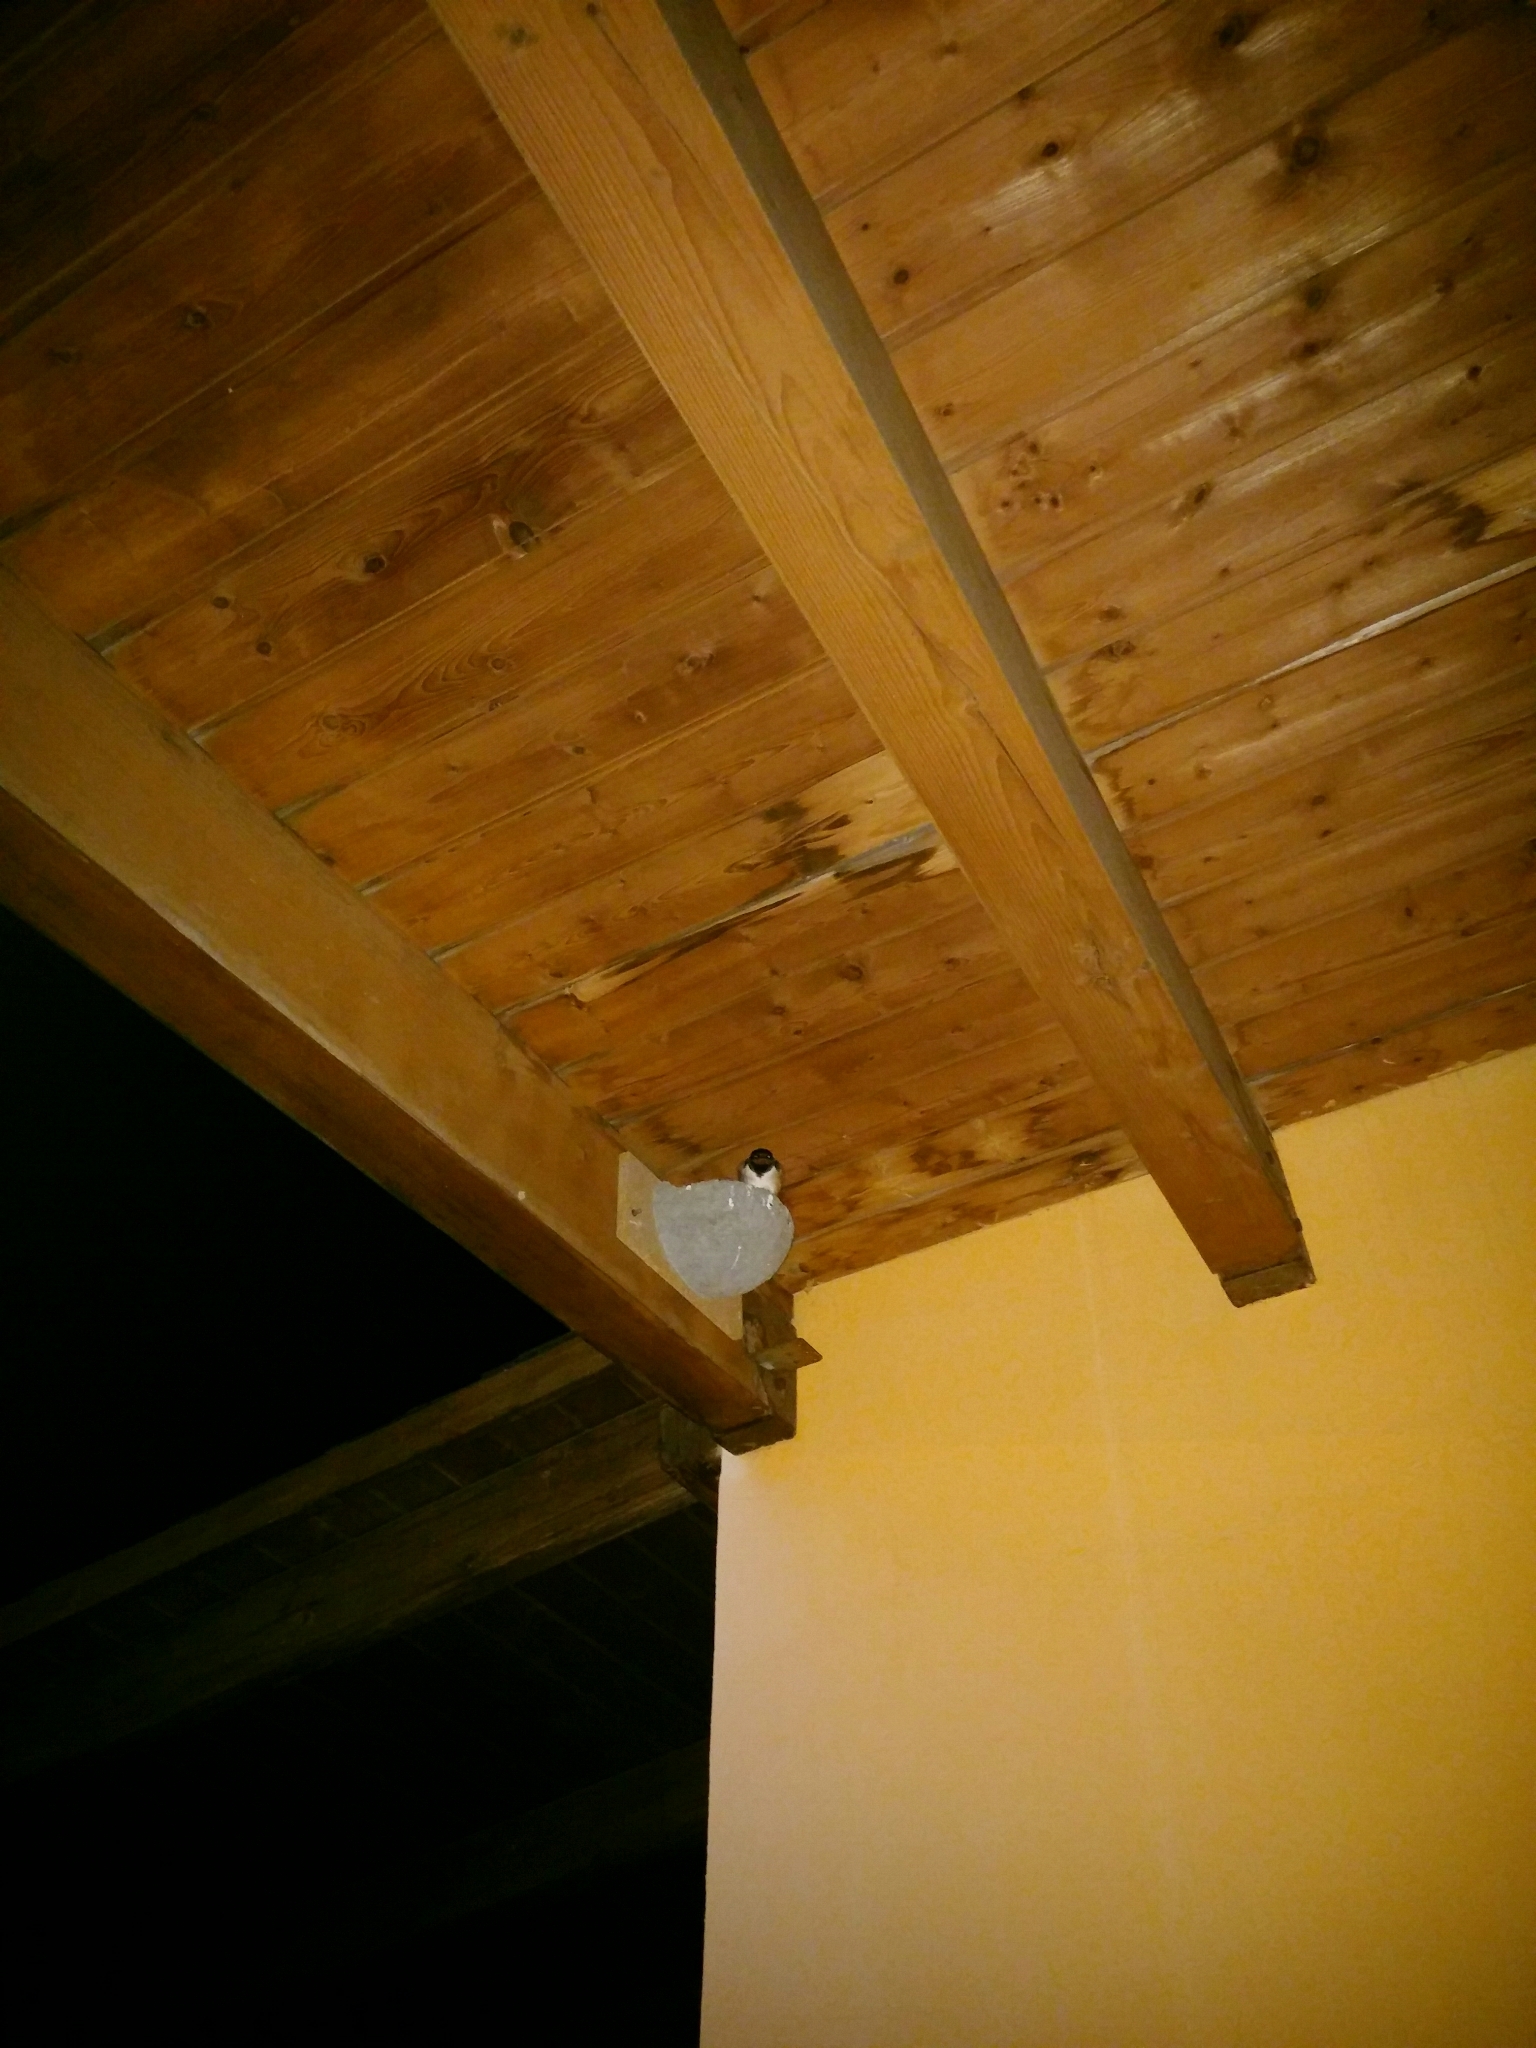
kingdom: Animalia
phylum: Chordata
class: Aves
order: Passeriformes
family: Hirundinidae
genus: Hirundo
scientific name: Hirundo rustica
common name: Barn swallow
